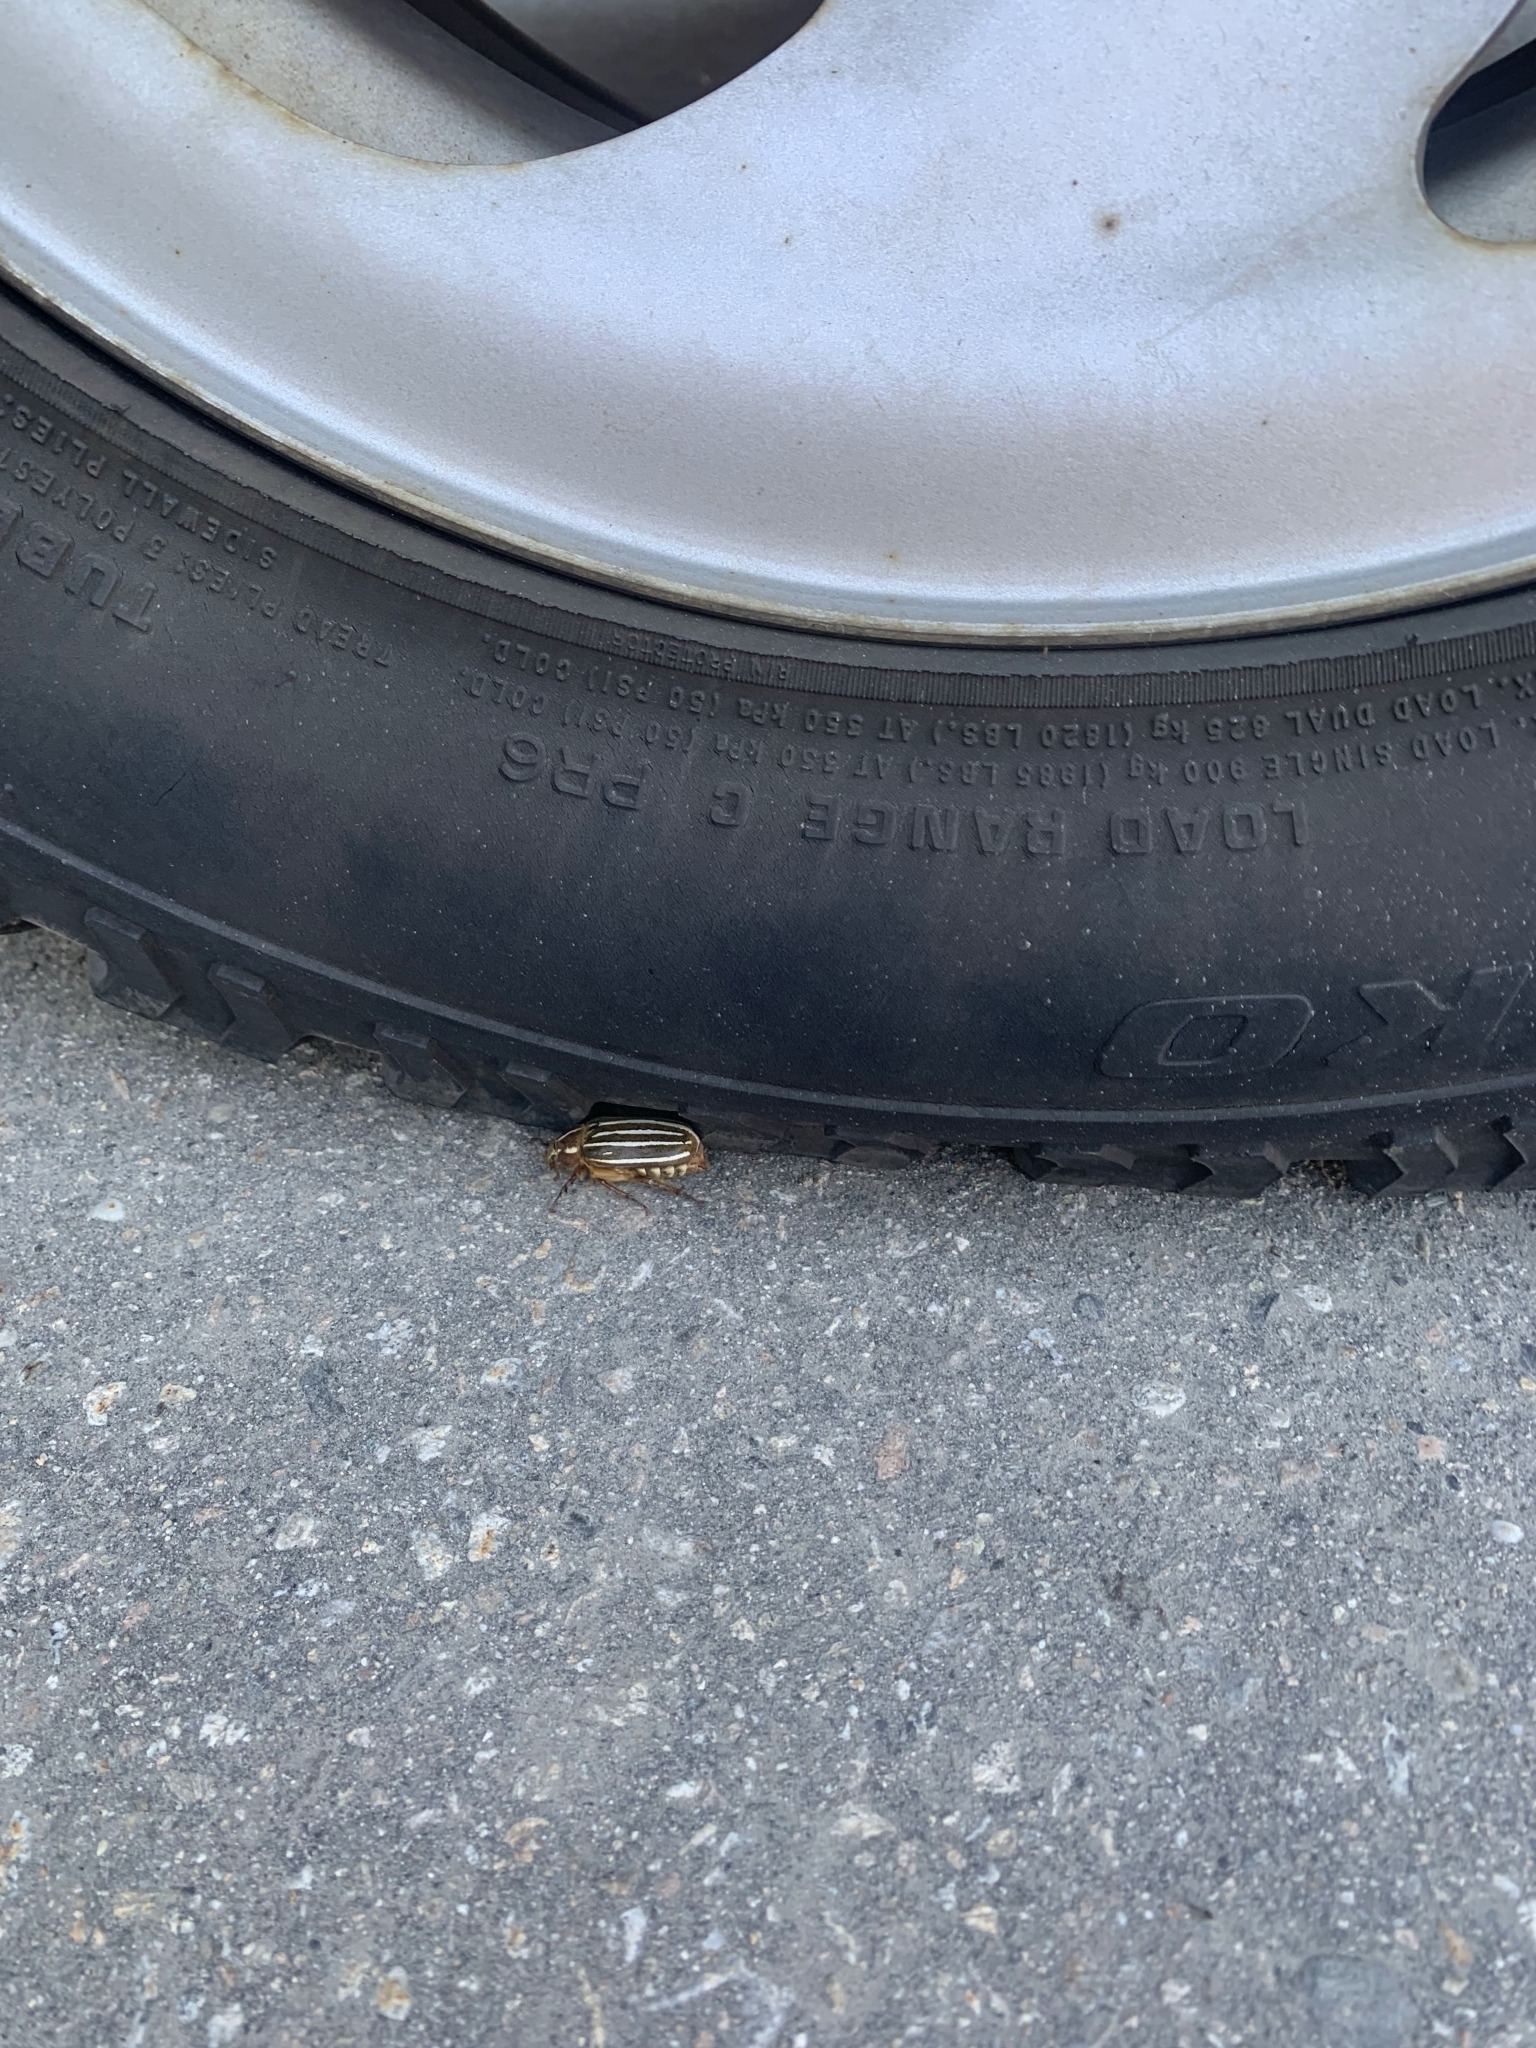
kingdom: Animalia
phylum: Arthropoda
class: Insecta
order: Coleoptera
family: Scarabaeidae
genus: Polyphylla
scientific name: Polyphylla crinita
